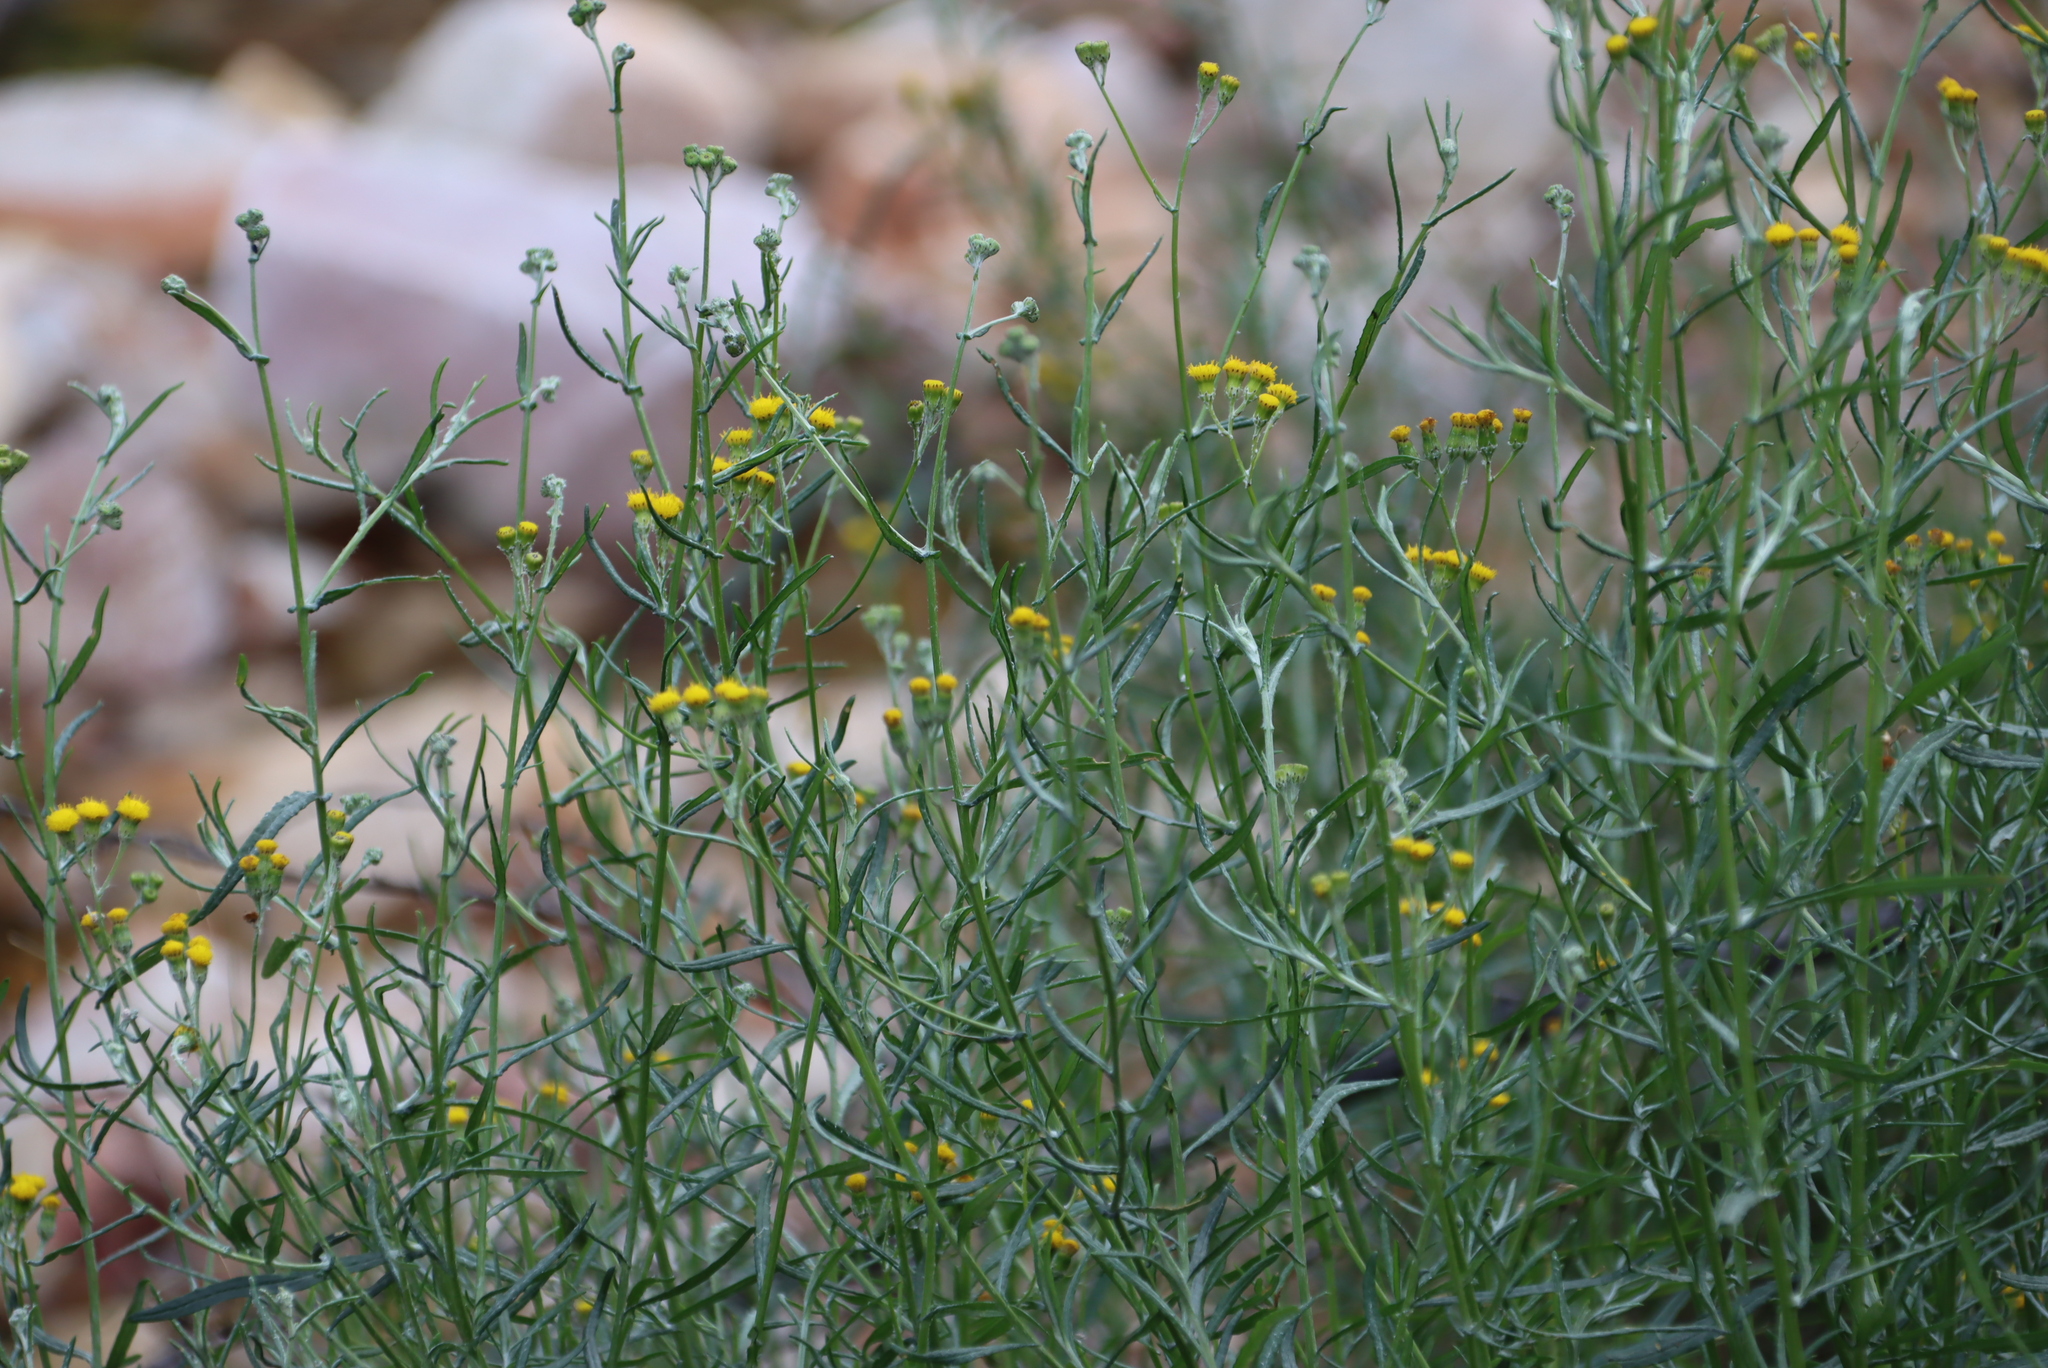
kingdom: Plantae
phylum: Tracheophyta
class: Magnoliopsida
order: Asterales
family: Asteraceae
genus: Senecio
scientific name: Senecio niveus
